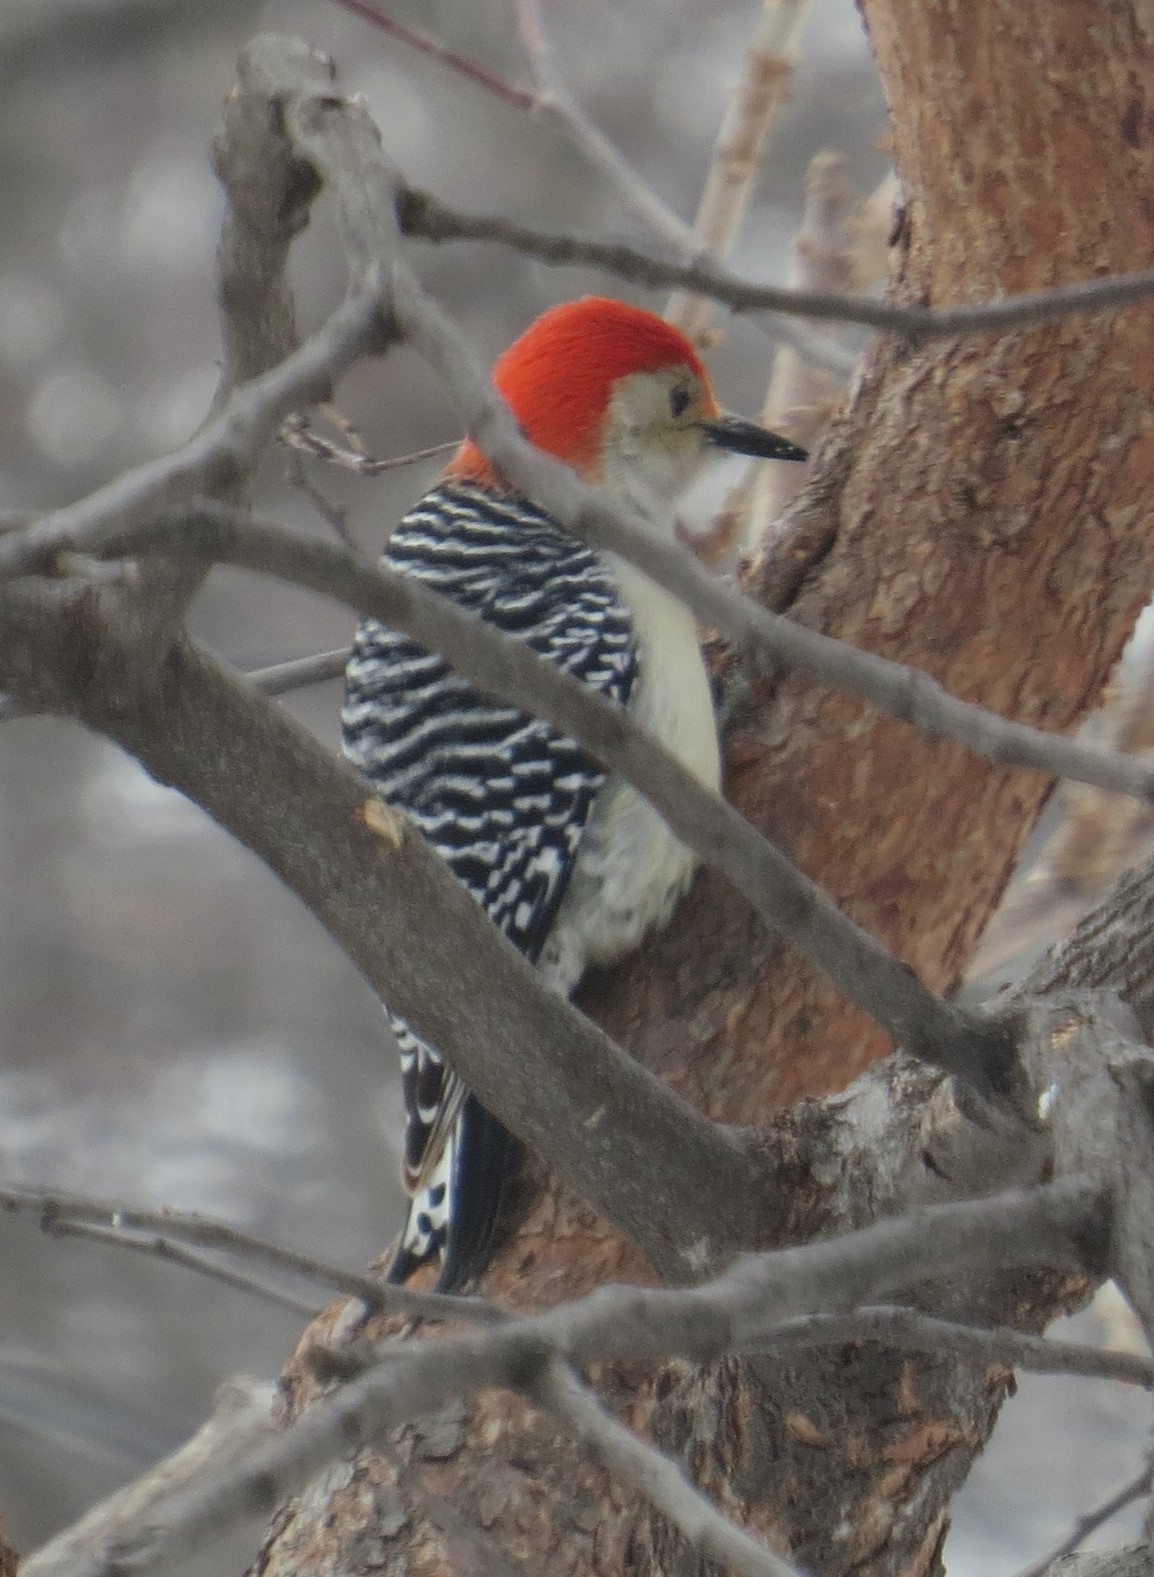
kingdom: Animalia
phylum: Chordata
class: Aves
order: Piciformes
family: Picidae
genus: Melanerpes
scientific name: Melanerpes carolinus
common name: Red-bellied woodpecker
